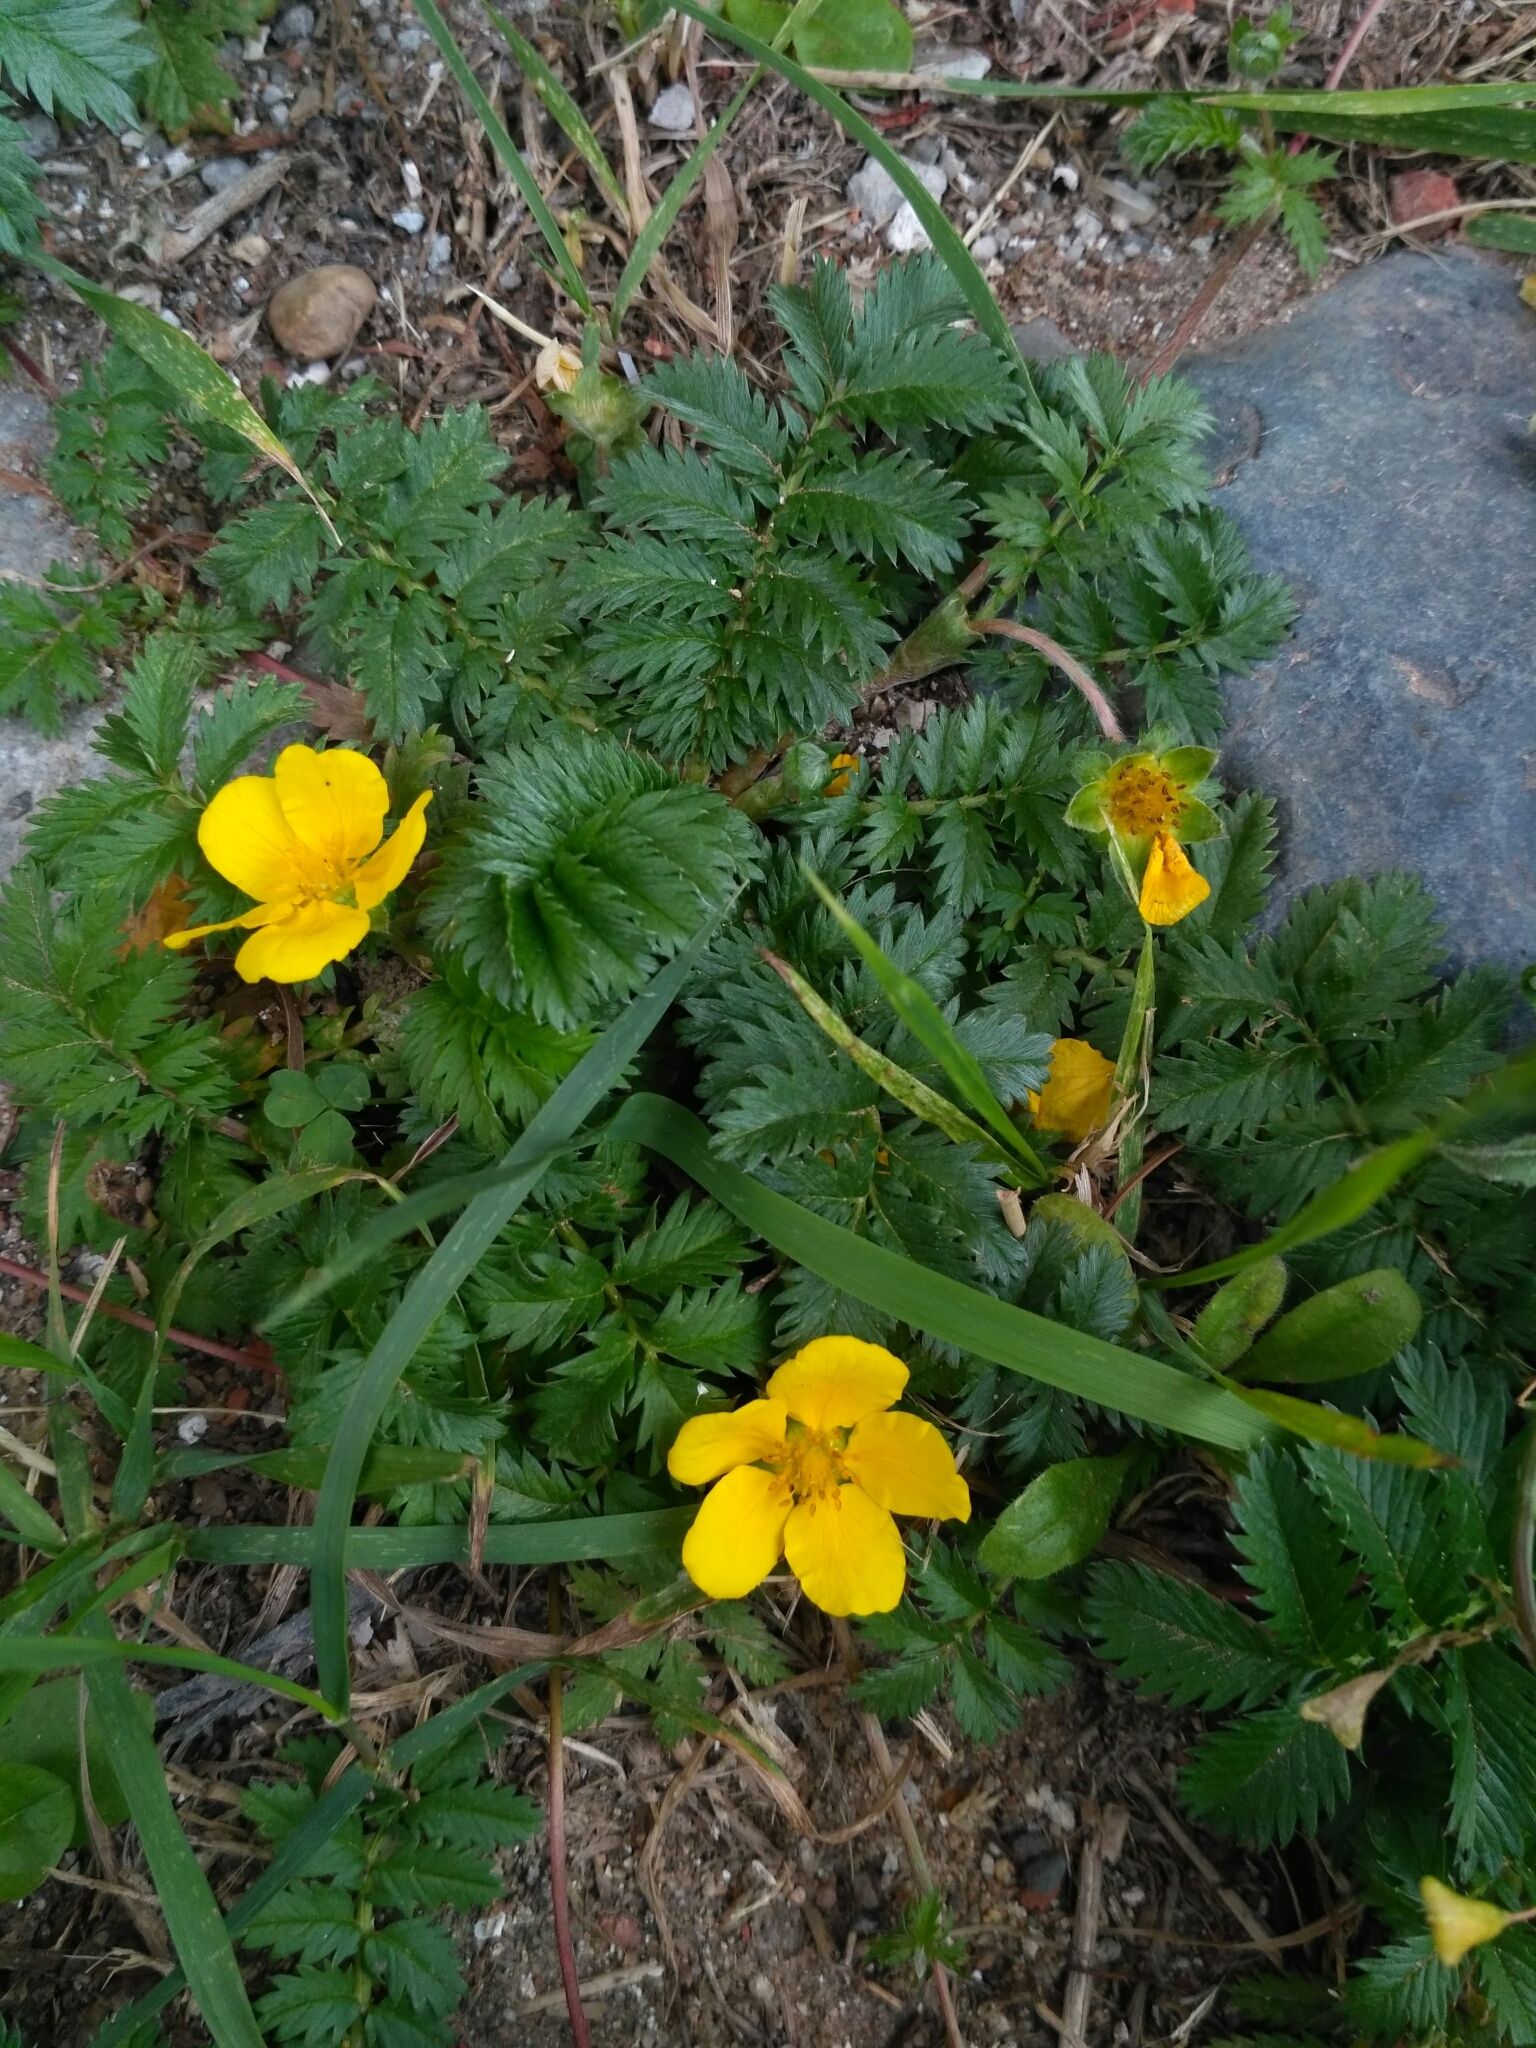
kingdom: Plantae
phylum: Tracheophyta
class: Magnoliopsida
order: Rosales
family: Rosaceae
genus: Argentina
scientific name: Argentina anserina
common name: Common silverweed
